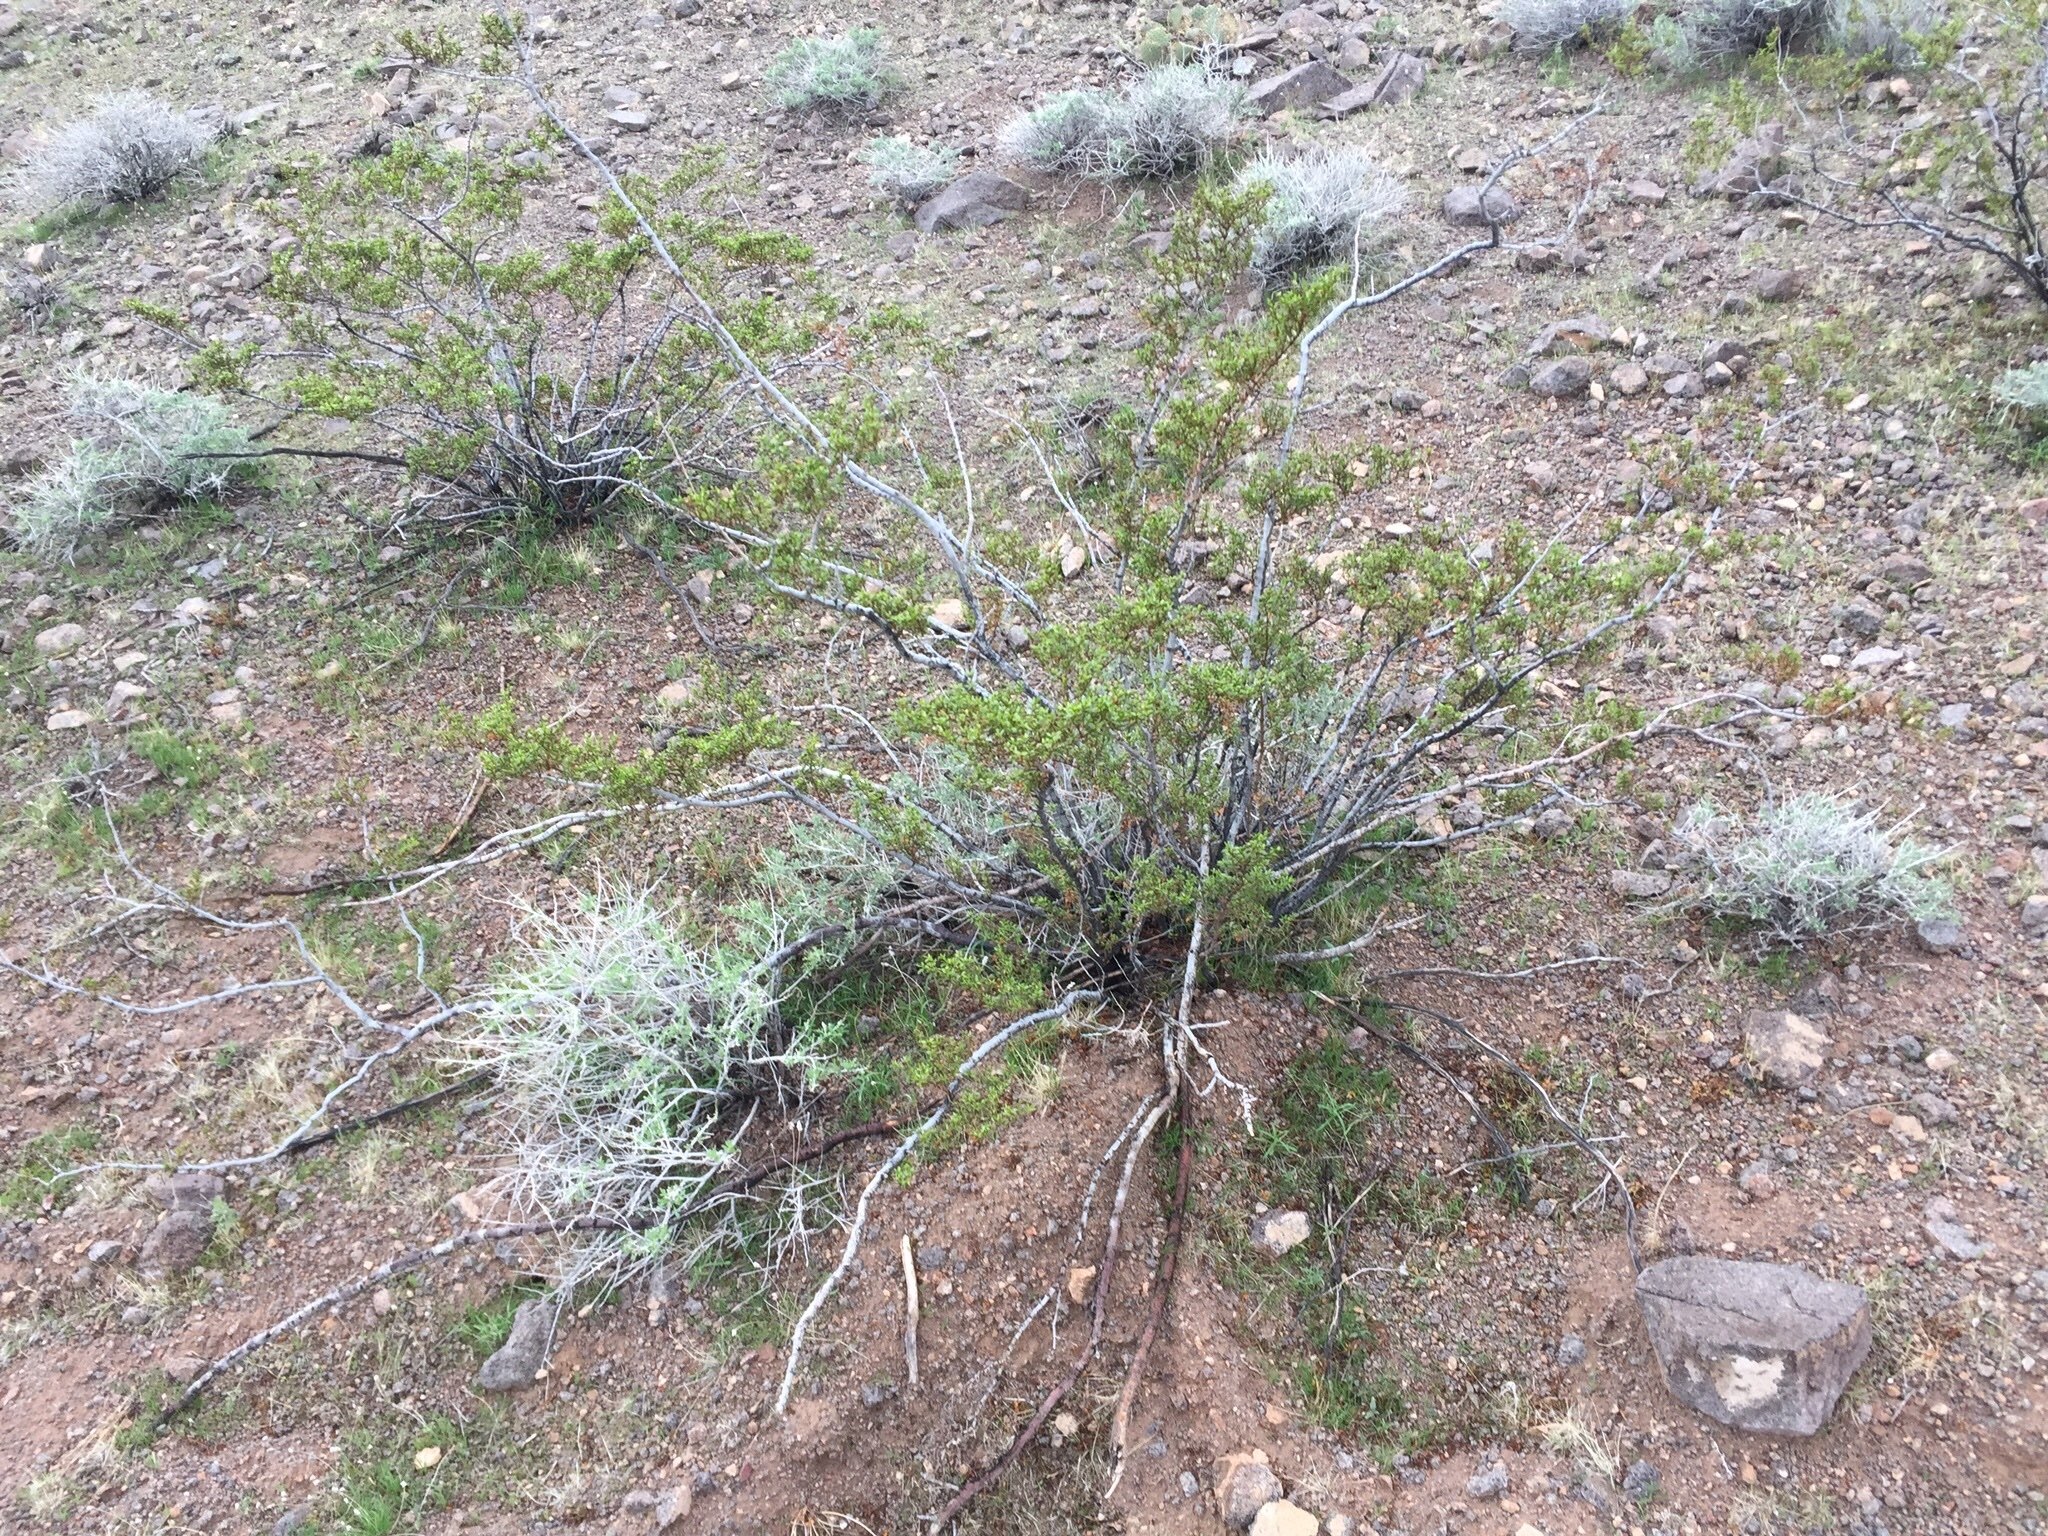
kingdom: Plantae
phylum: Tracheophyta
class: Magnoliopsida
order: Zygophyllales
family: Zygophyllaceae
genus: Larrea
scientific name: Larrea tridentata
